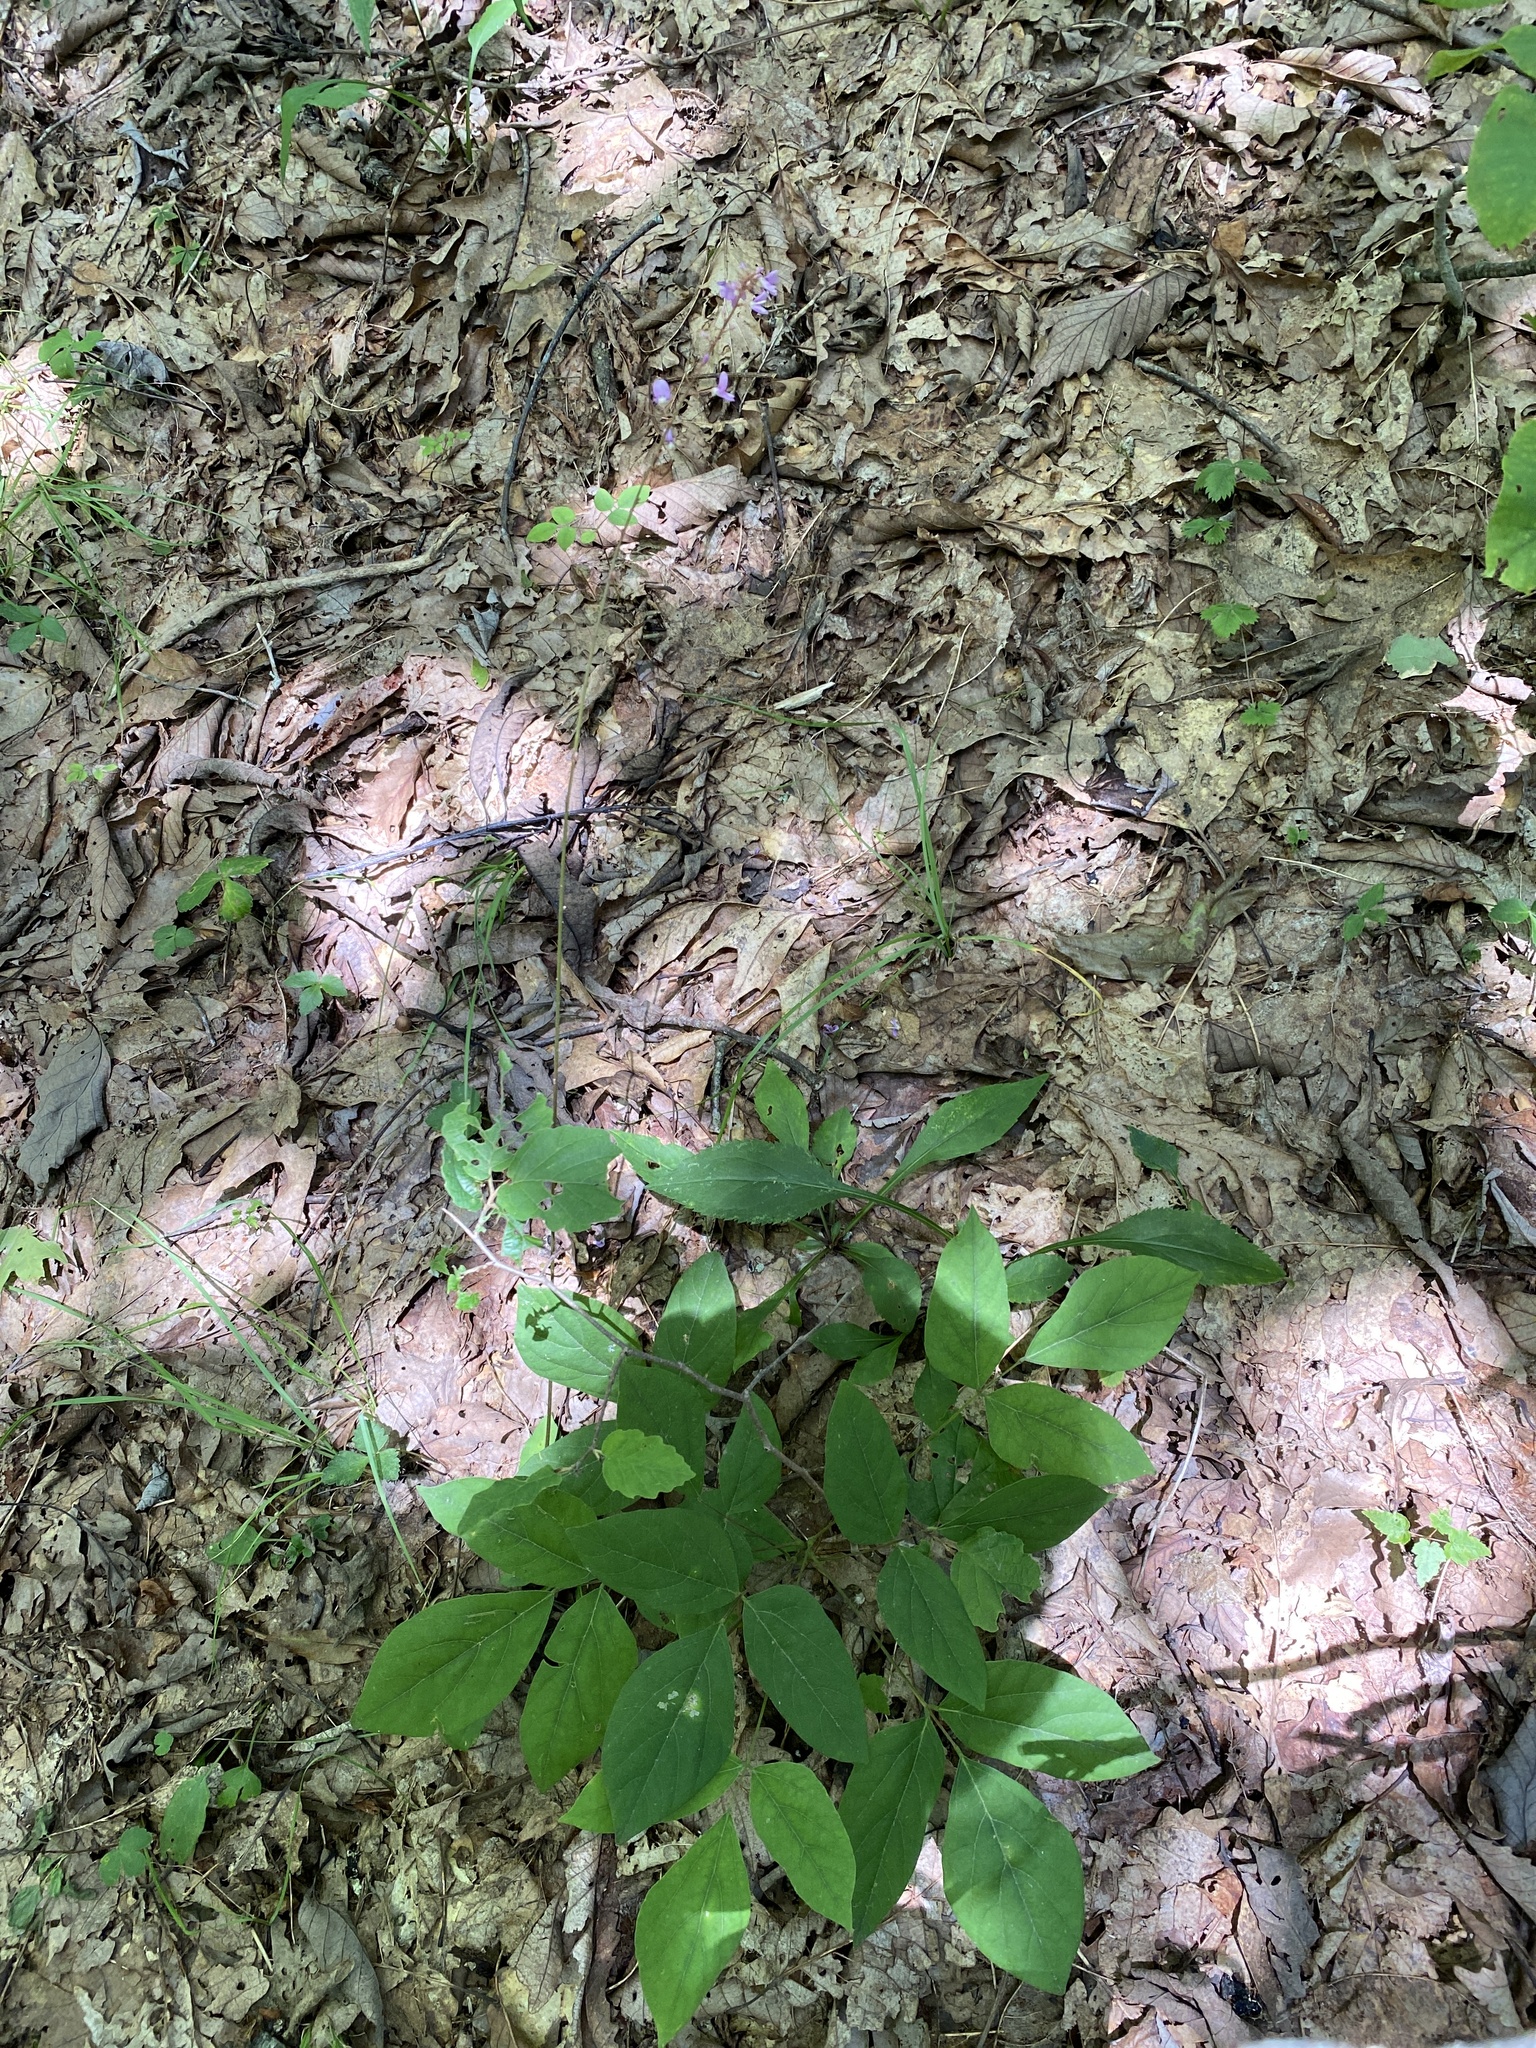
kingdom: Plantae
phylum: Tracheophyta
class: Magnoliopsida
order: Fabales
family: Fabaceae
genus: Hylodesmum
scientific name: Hylodesmum nudiflorum
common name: Bare-stemmed tick-trefoil
